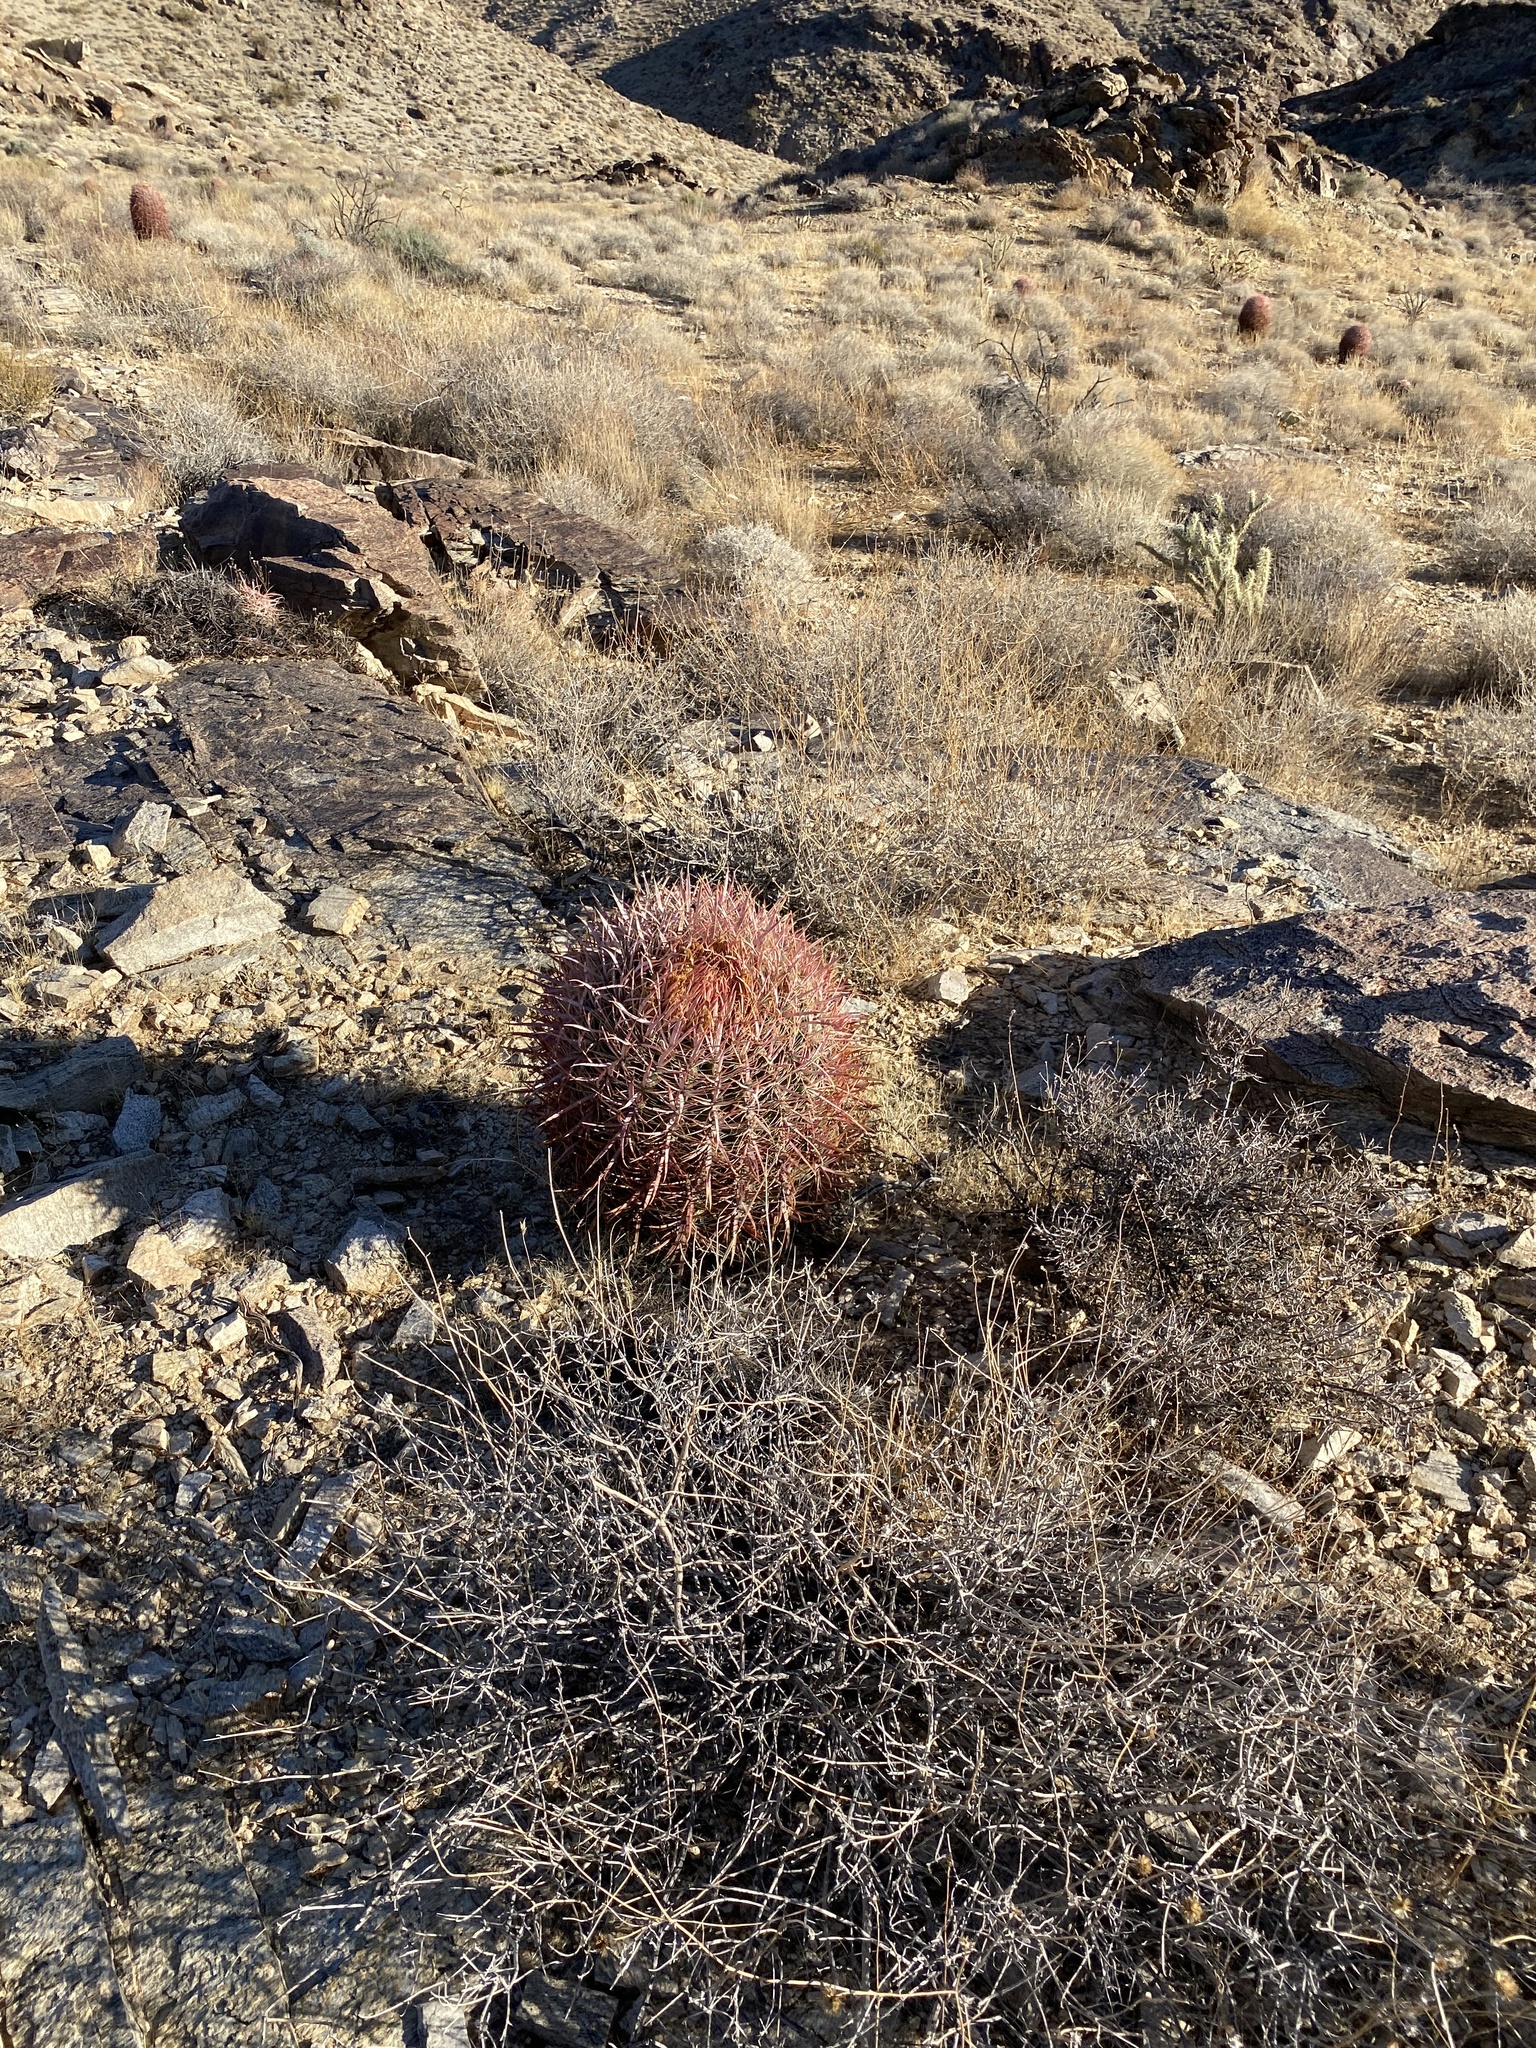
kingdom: Plantae
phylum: Tracheophyta
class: Magnoliopsida
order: Caryophyllales
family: Cactaceae
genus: Ferocactus
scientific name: Ferocactus cylindraceus
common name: California barrel cactus
